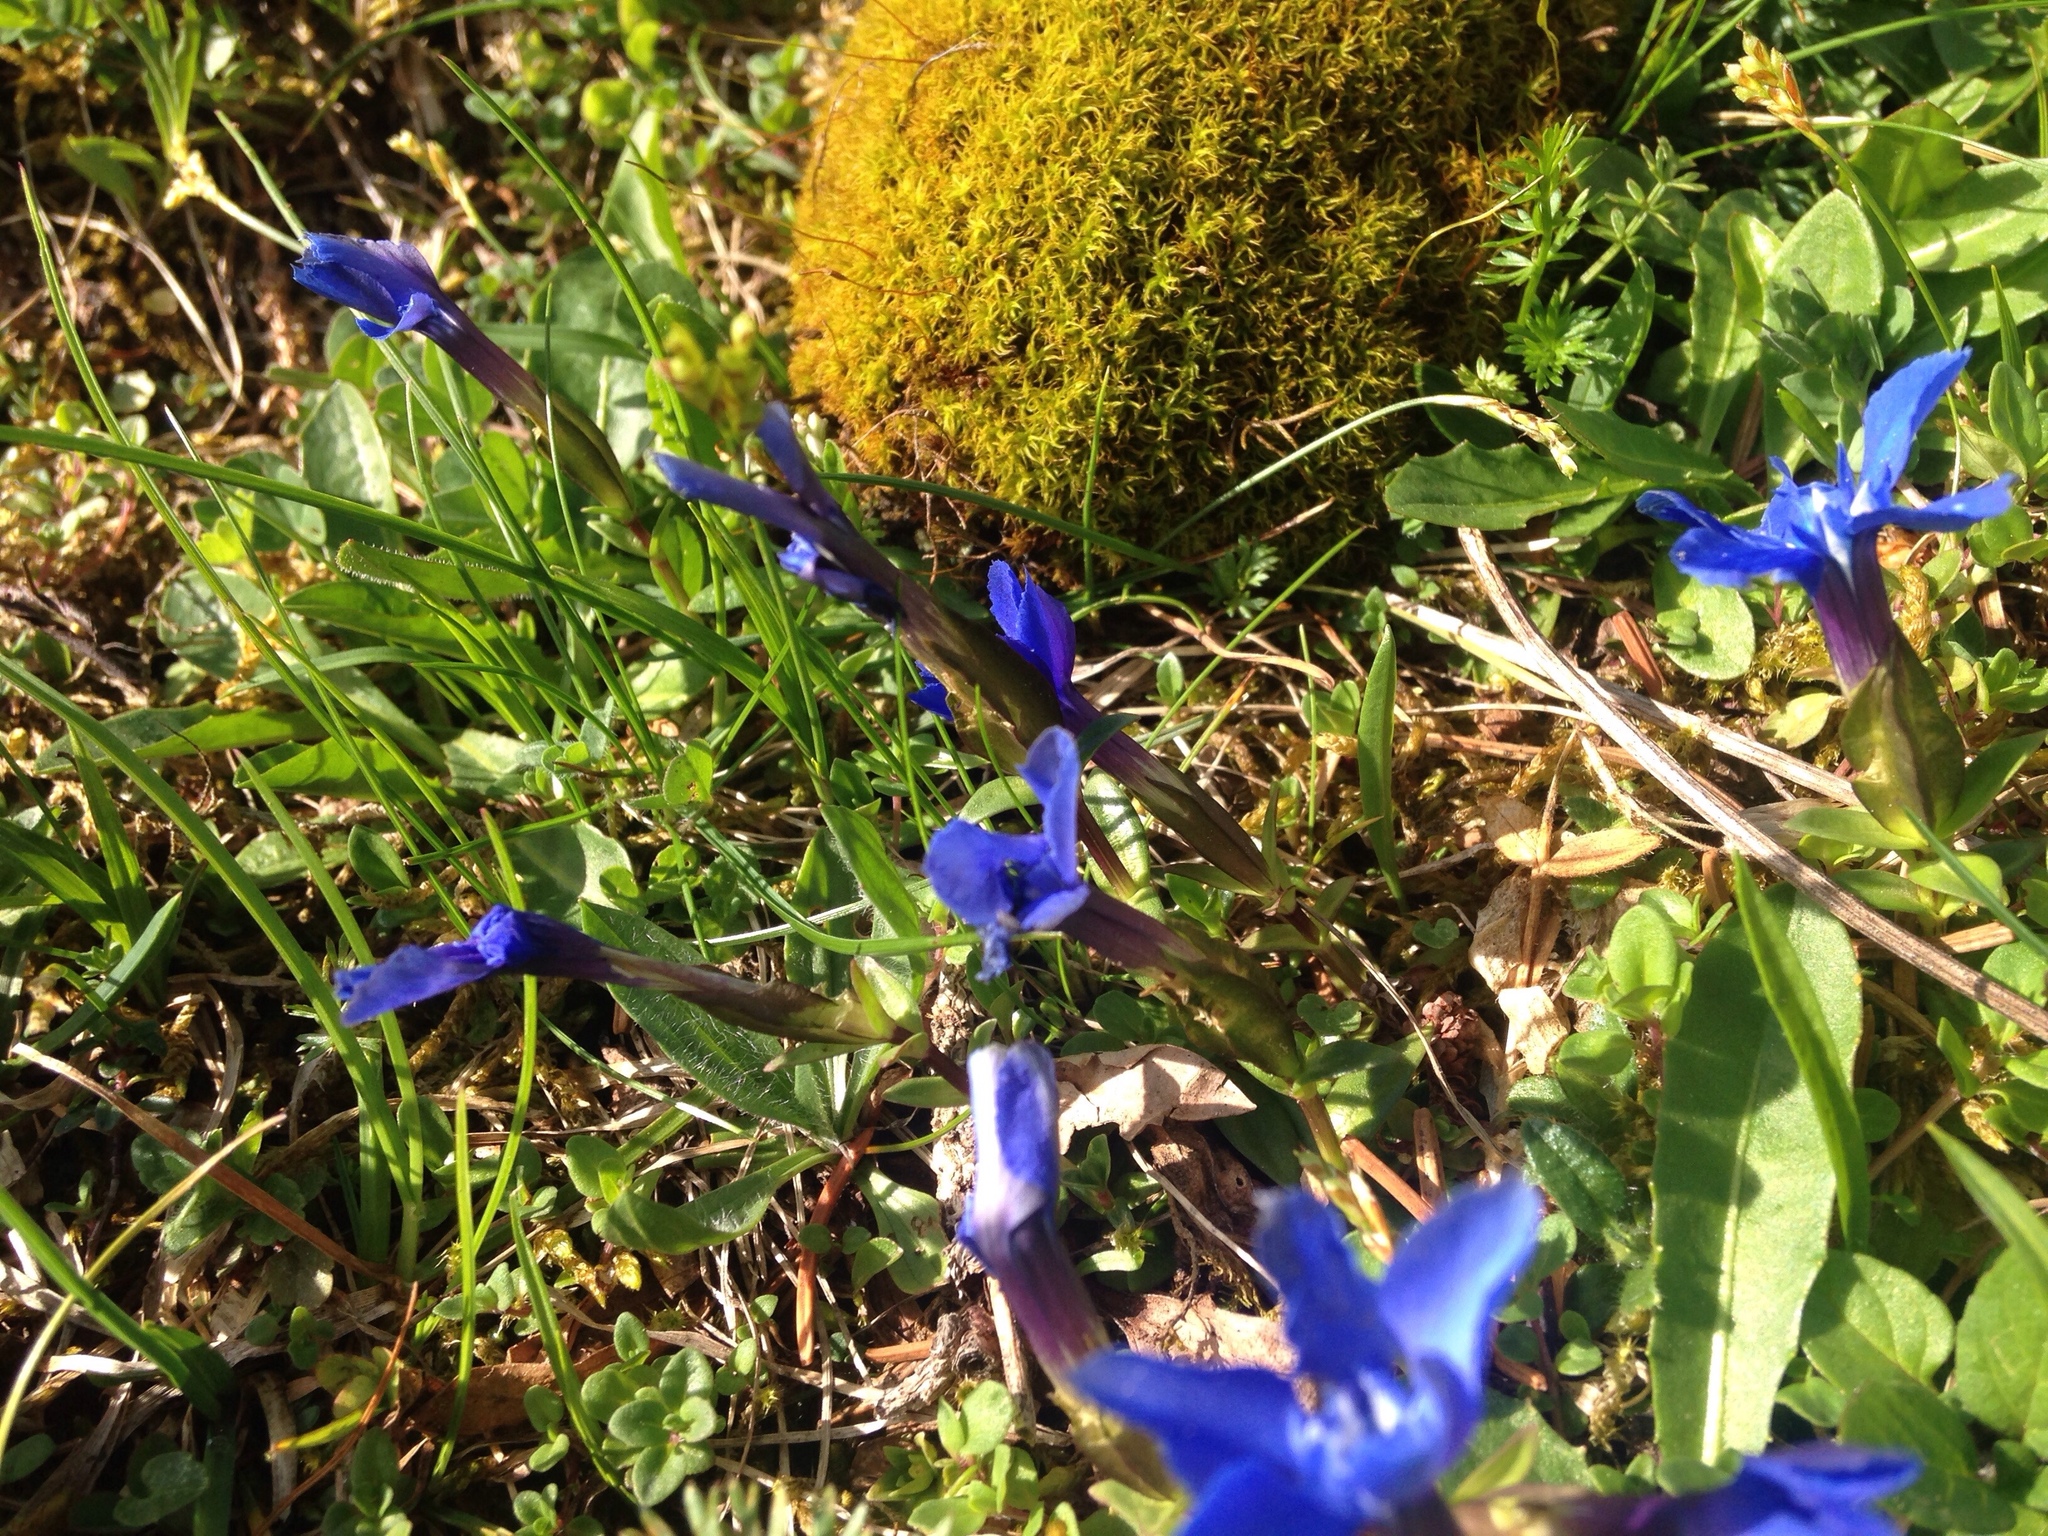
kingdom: Plantae
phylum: Tracheophyta
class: Magnoliopsida
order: Gentianales
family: Gentianaceae
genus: Gentiana
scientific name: Gentiana verna
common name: Spring gentian
